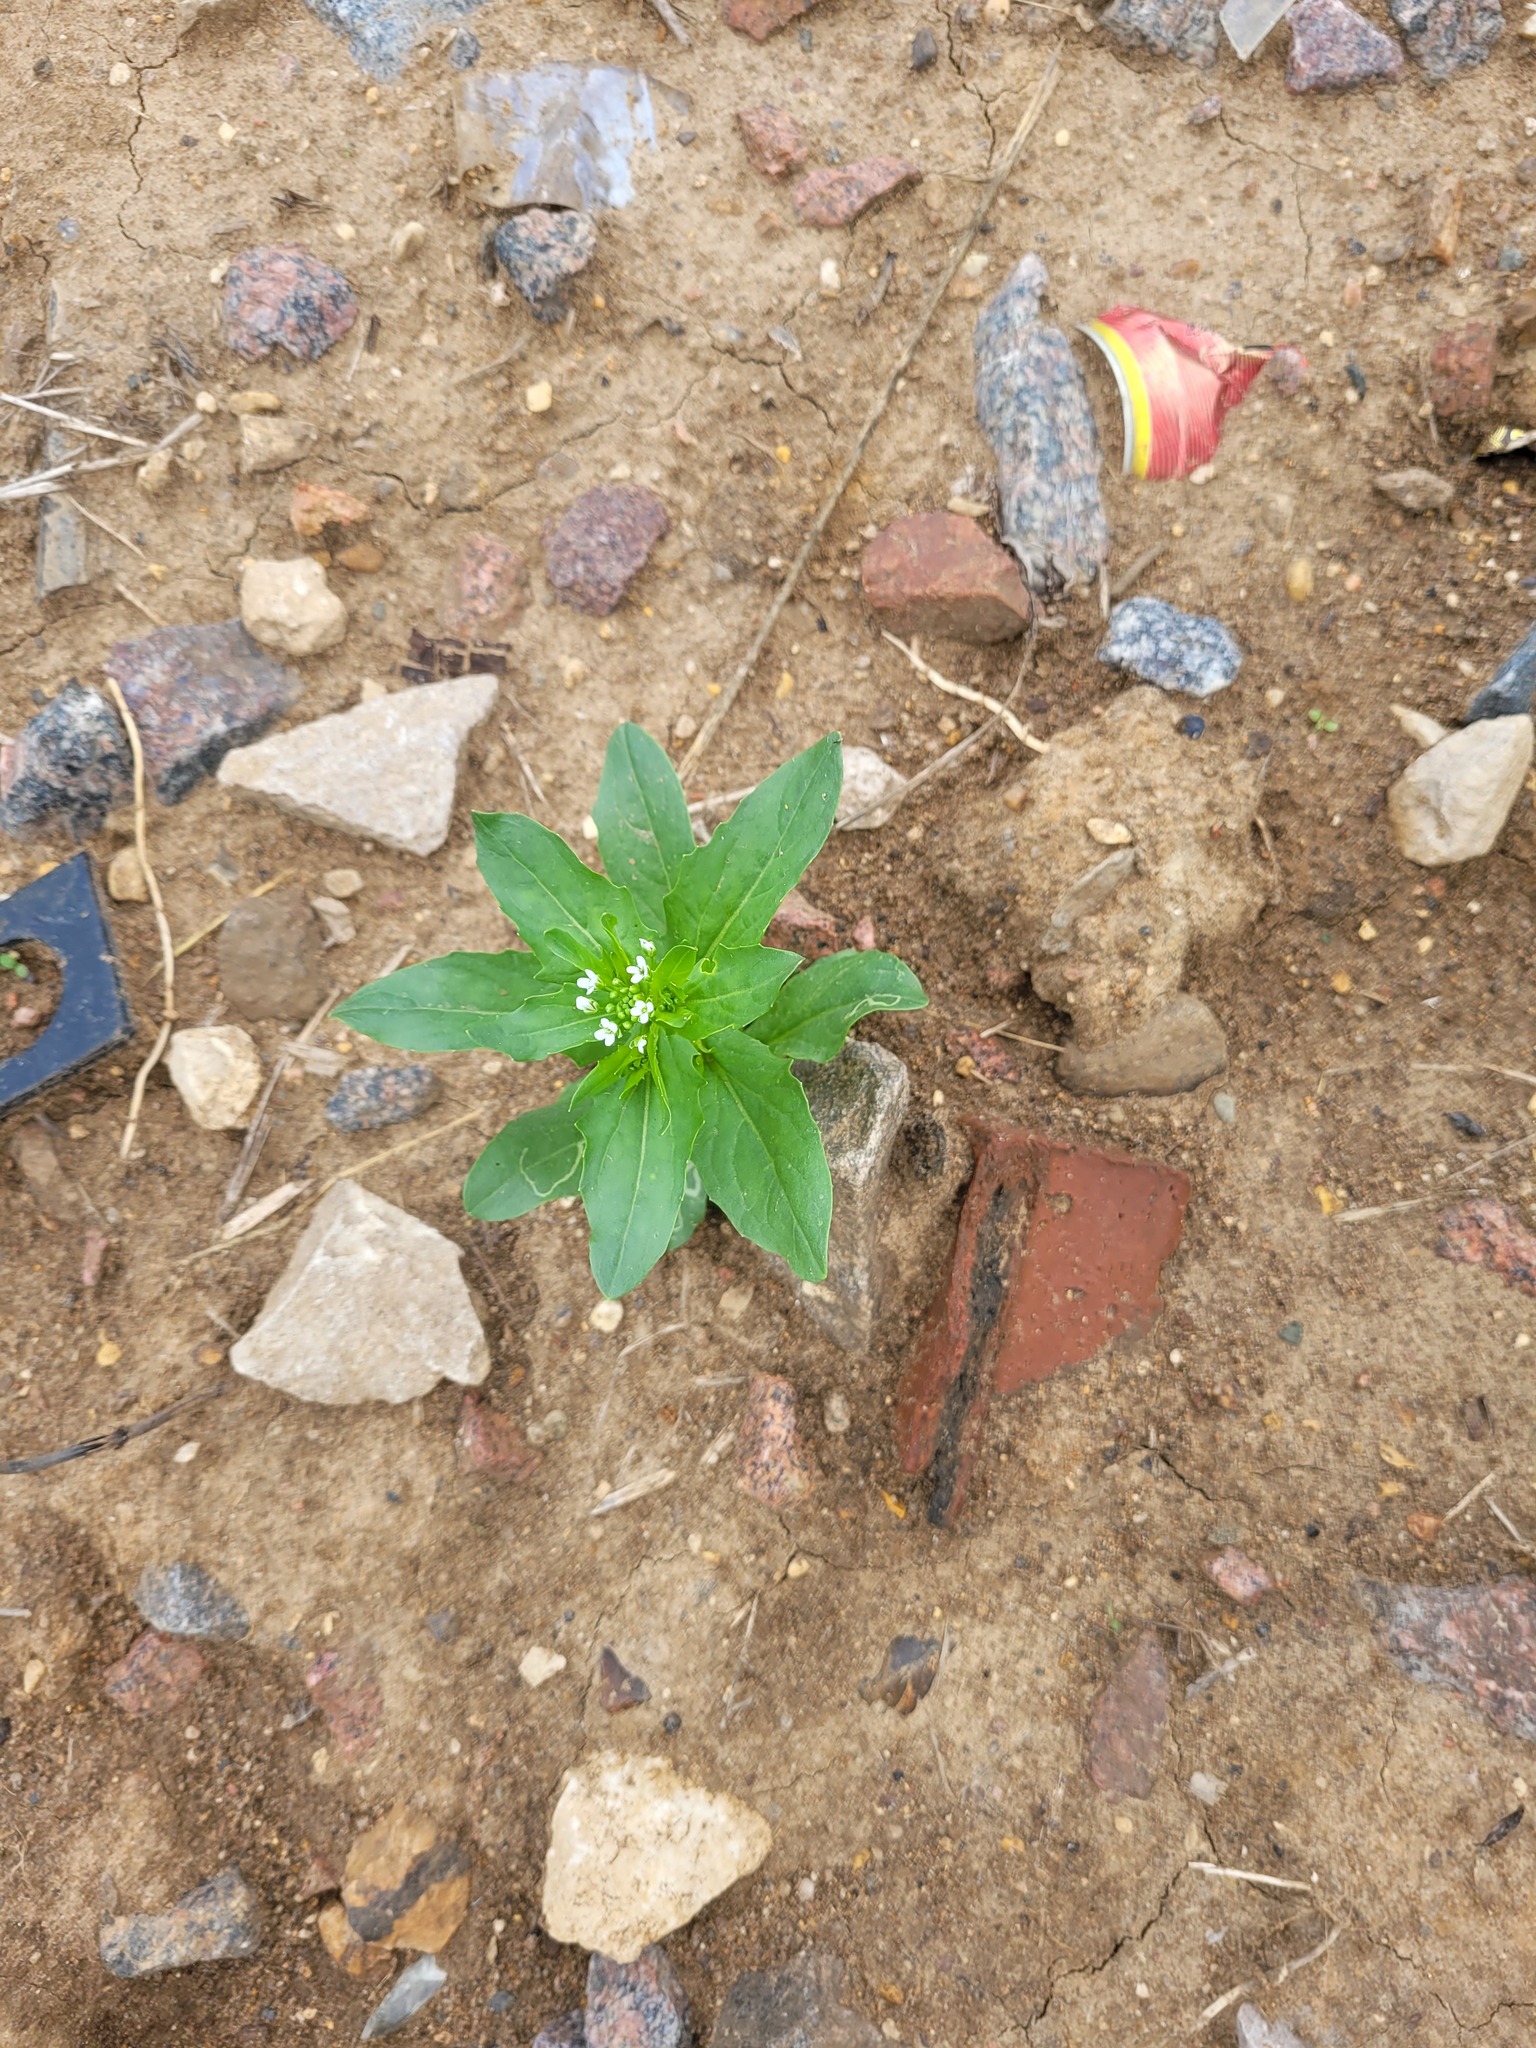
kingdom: Plantae
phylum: Tracheophyta
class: Magnoliopsida
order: Brassicales
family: Brassicaceae
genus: Thlaspi
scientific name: Thlaspi arvense
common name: Field pennycress
